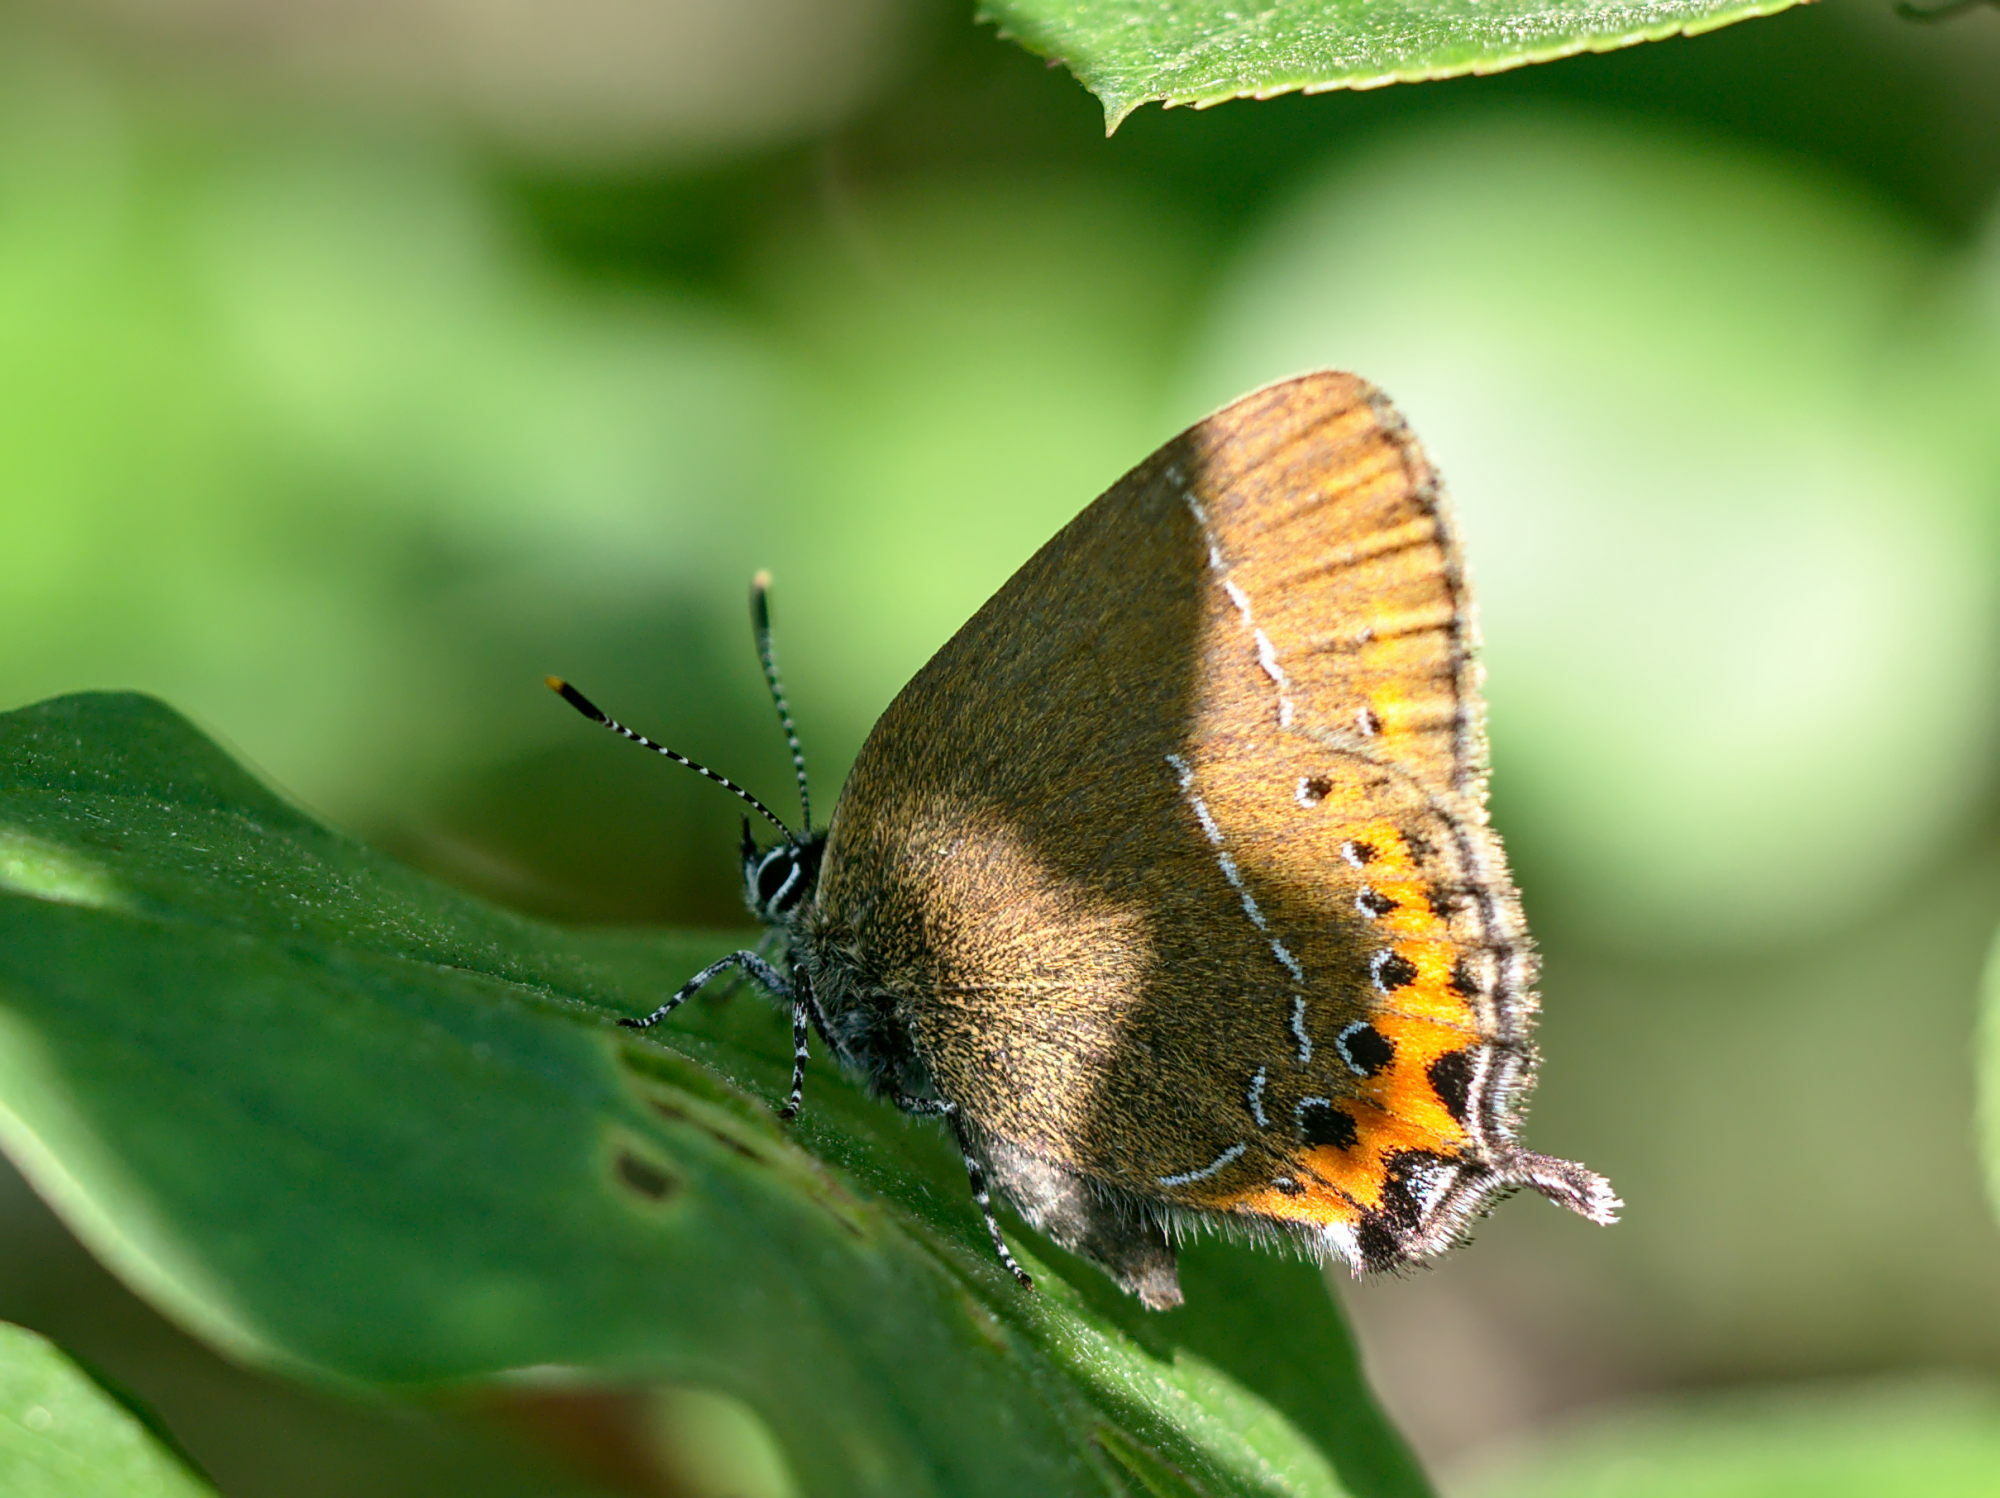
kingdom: Animalia
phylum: Arthropoda
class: Insecta
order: Lepidoptera
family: Lycaenidae
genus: Fixsenia
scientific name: Fixsenia pruni
